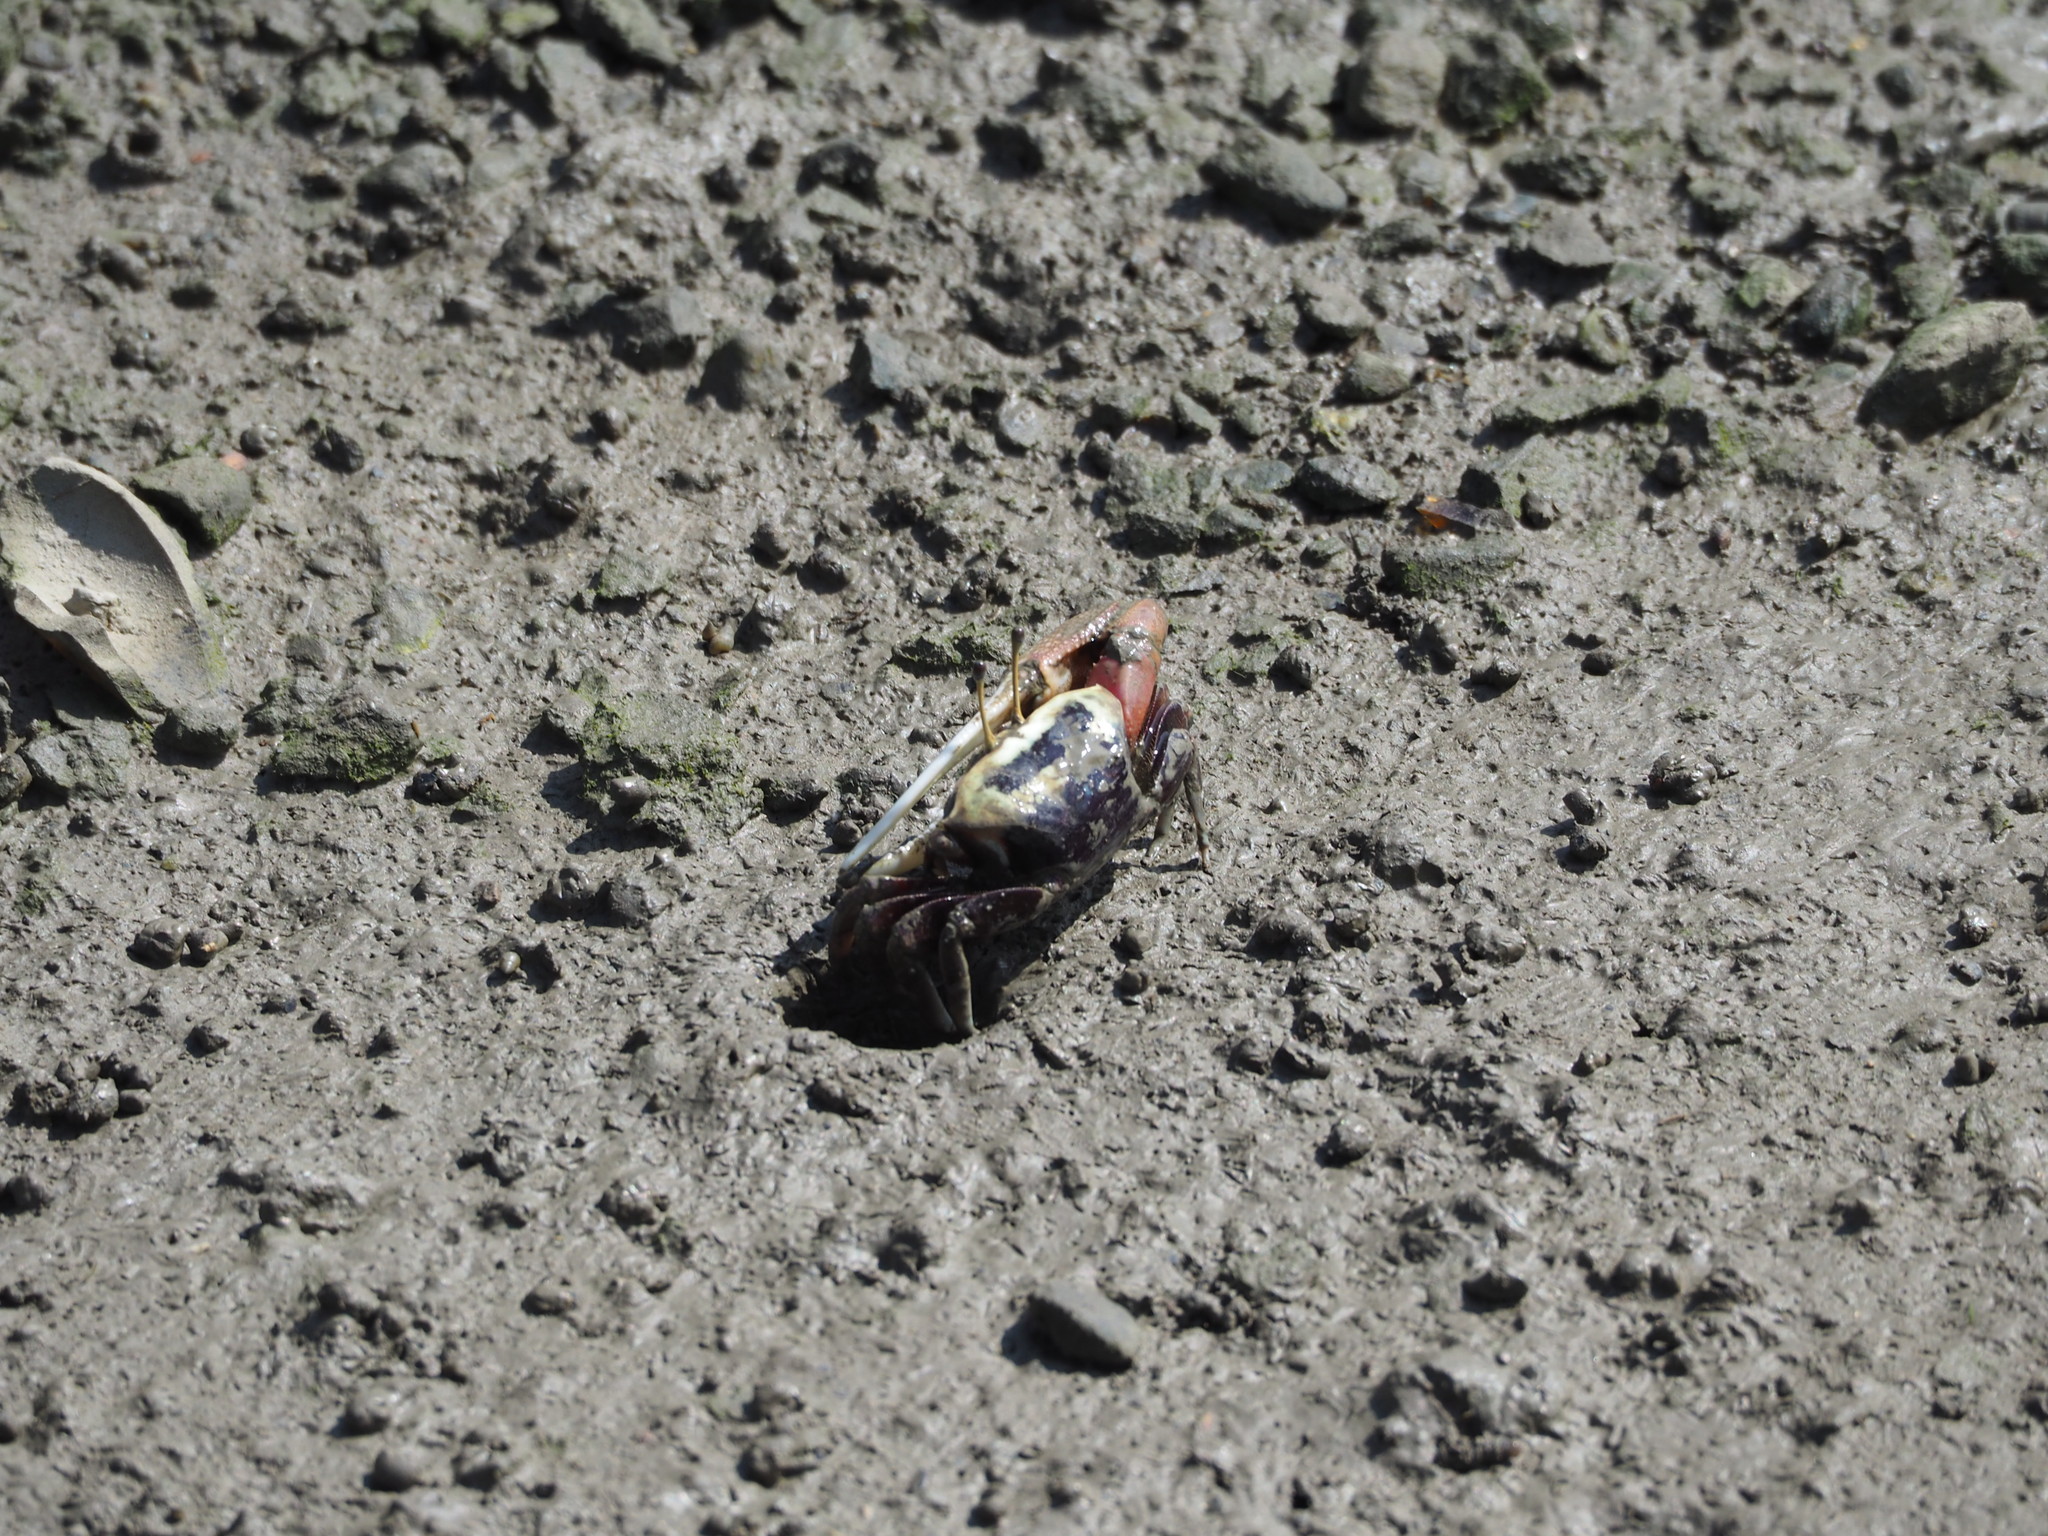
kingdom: Animalia
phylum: Arthropoda
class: Malacostraca
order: Decapoda
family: Ocypodidae
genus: Tubuca
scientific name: Tubuca arcuata
